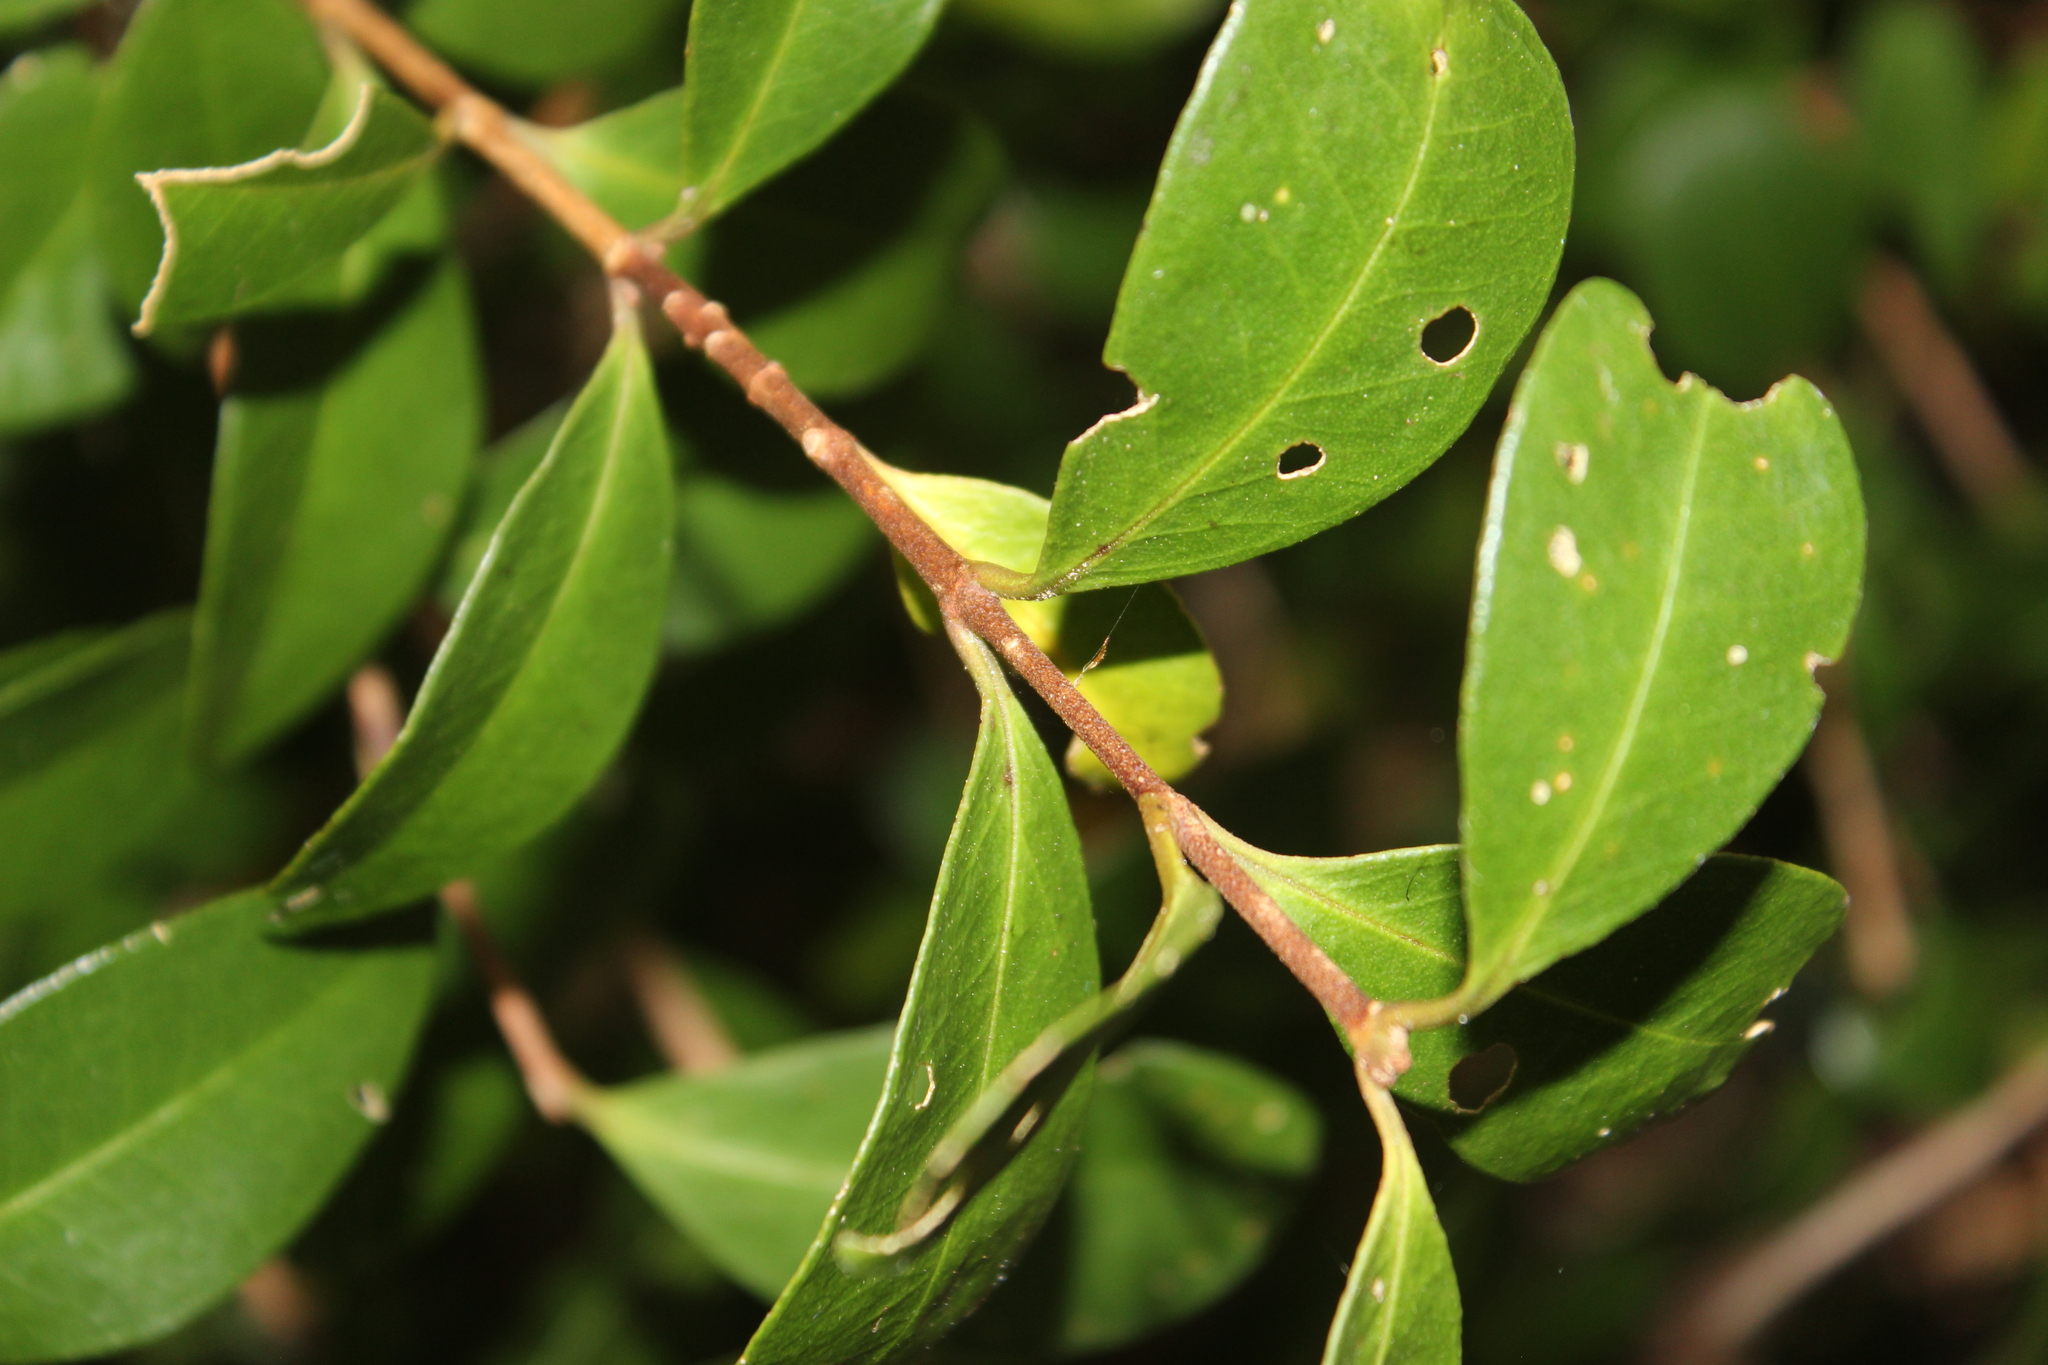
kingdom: Plantae
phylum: Tracheophyta
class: Magnoliopsida
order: Myrtales
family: Myrtaceae
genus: Metrosideros
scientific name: Metrosideros robusta
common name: Northern rata
